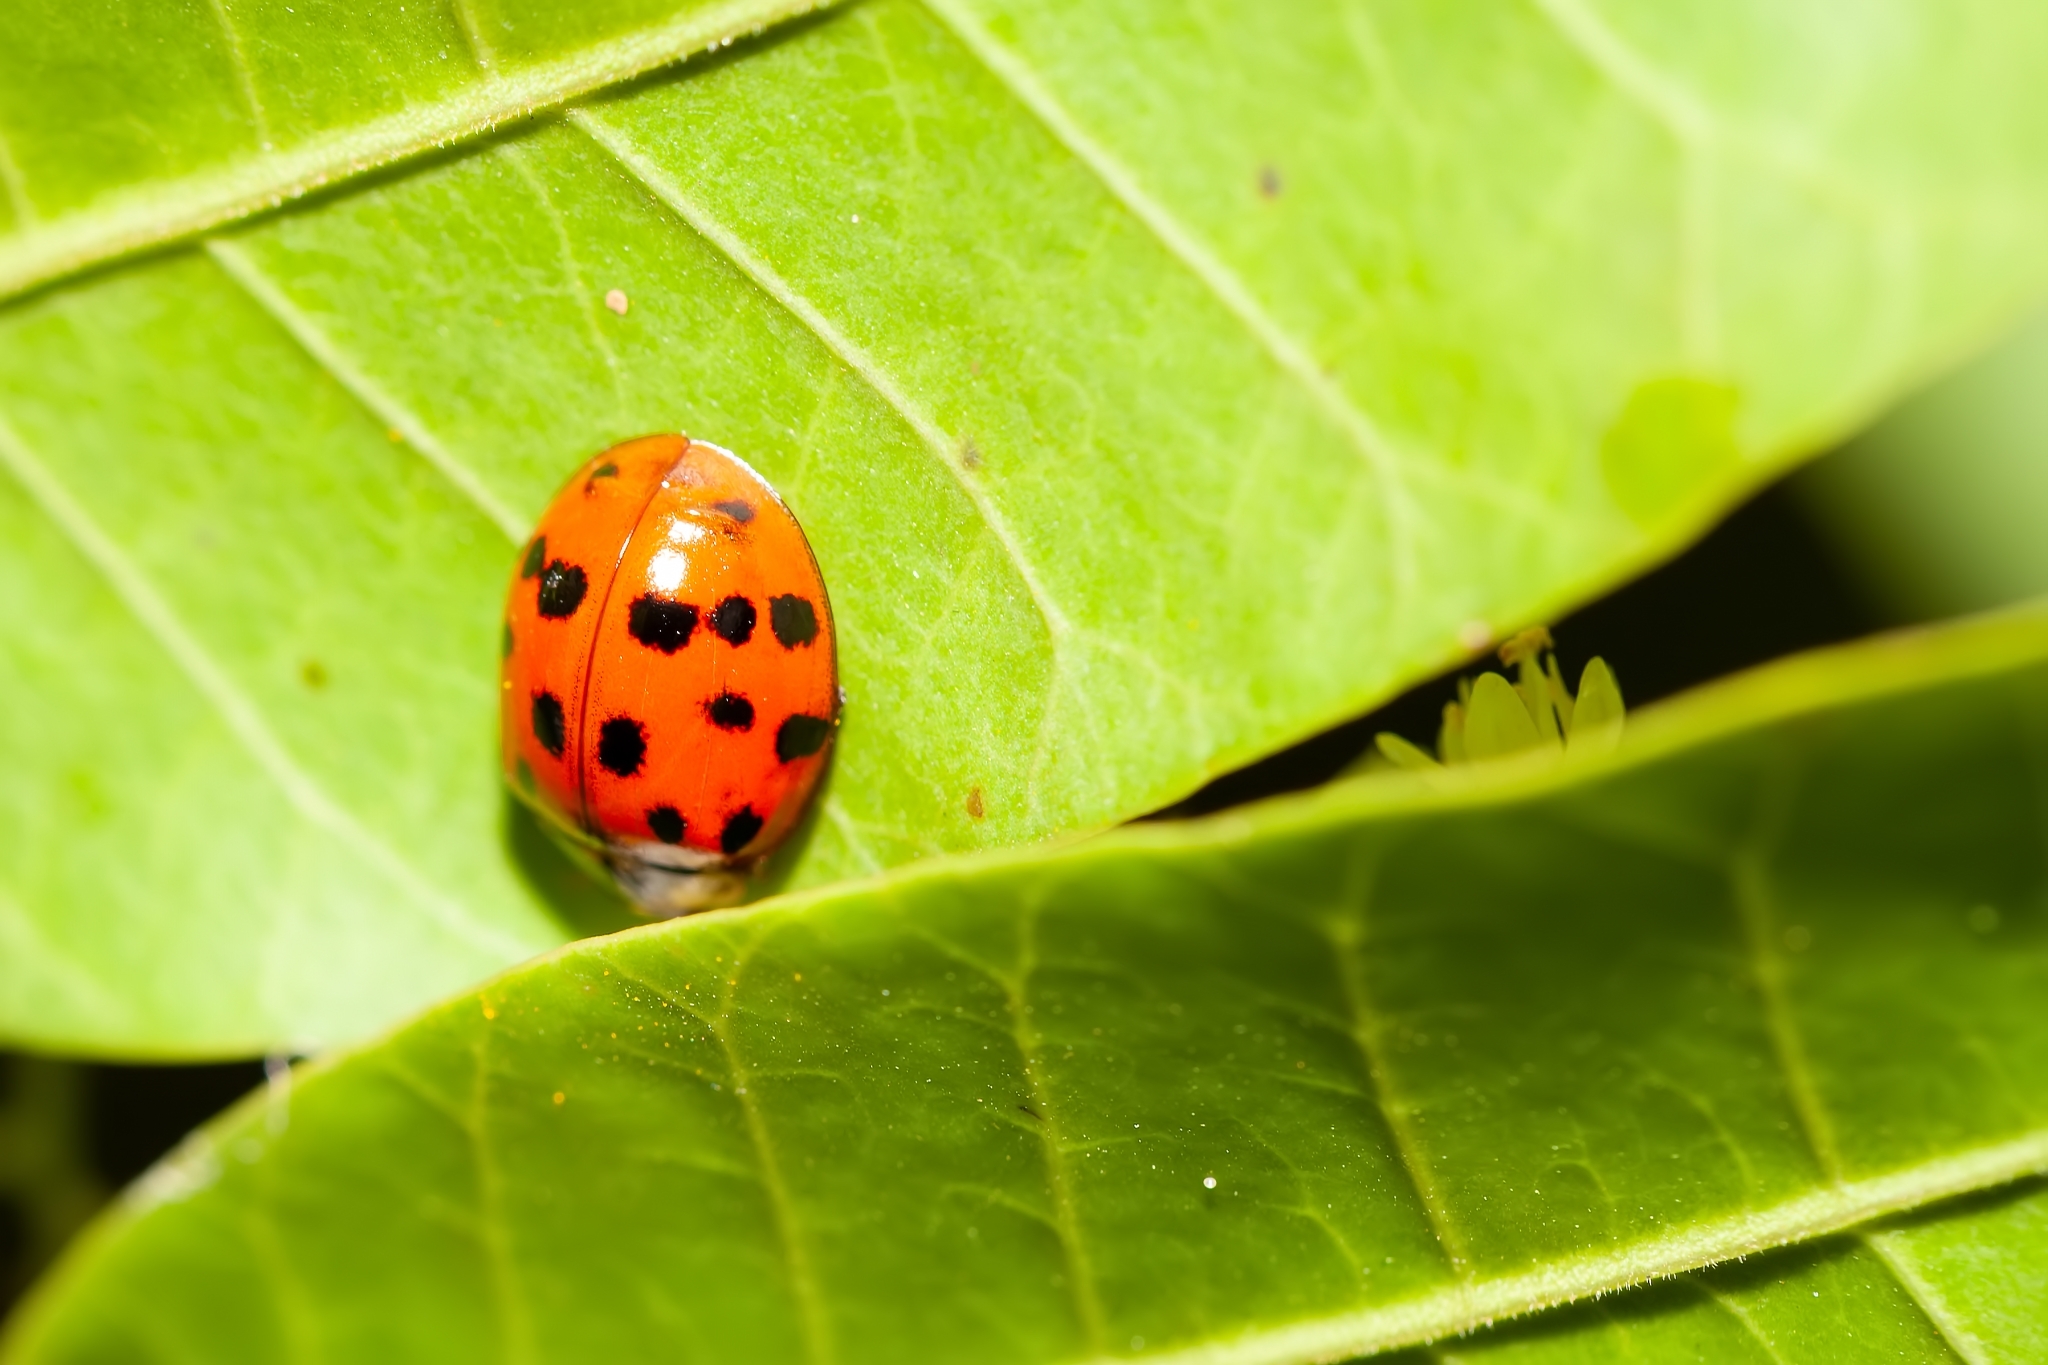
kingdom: Animalia
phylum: Arthropoda
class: Insecta
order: Coleoptera
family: Coccinellidae
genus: Harmonia
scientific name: Harmonia axyridis
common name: Harlequin ladybird
